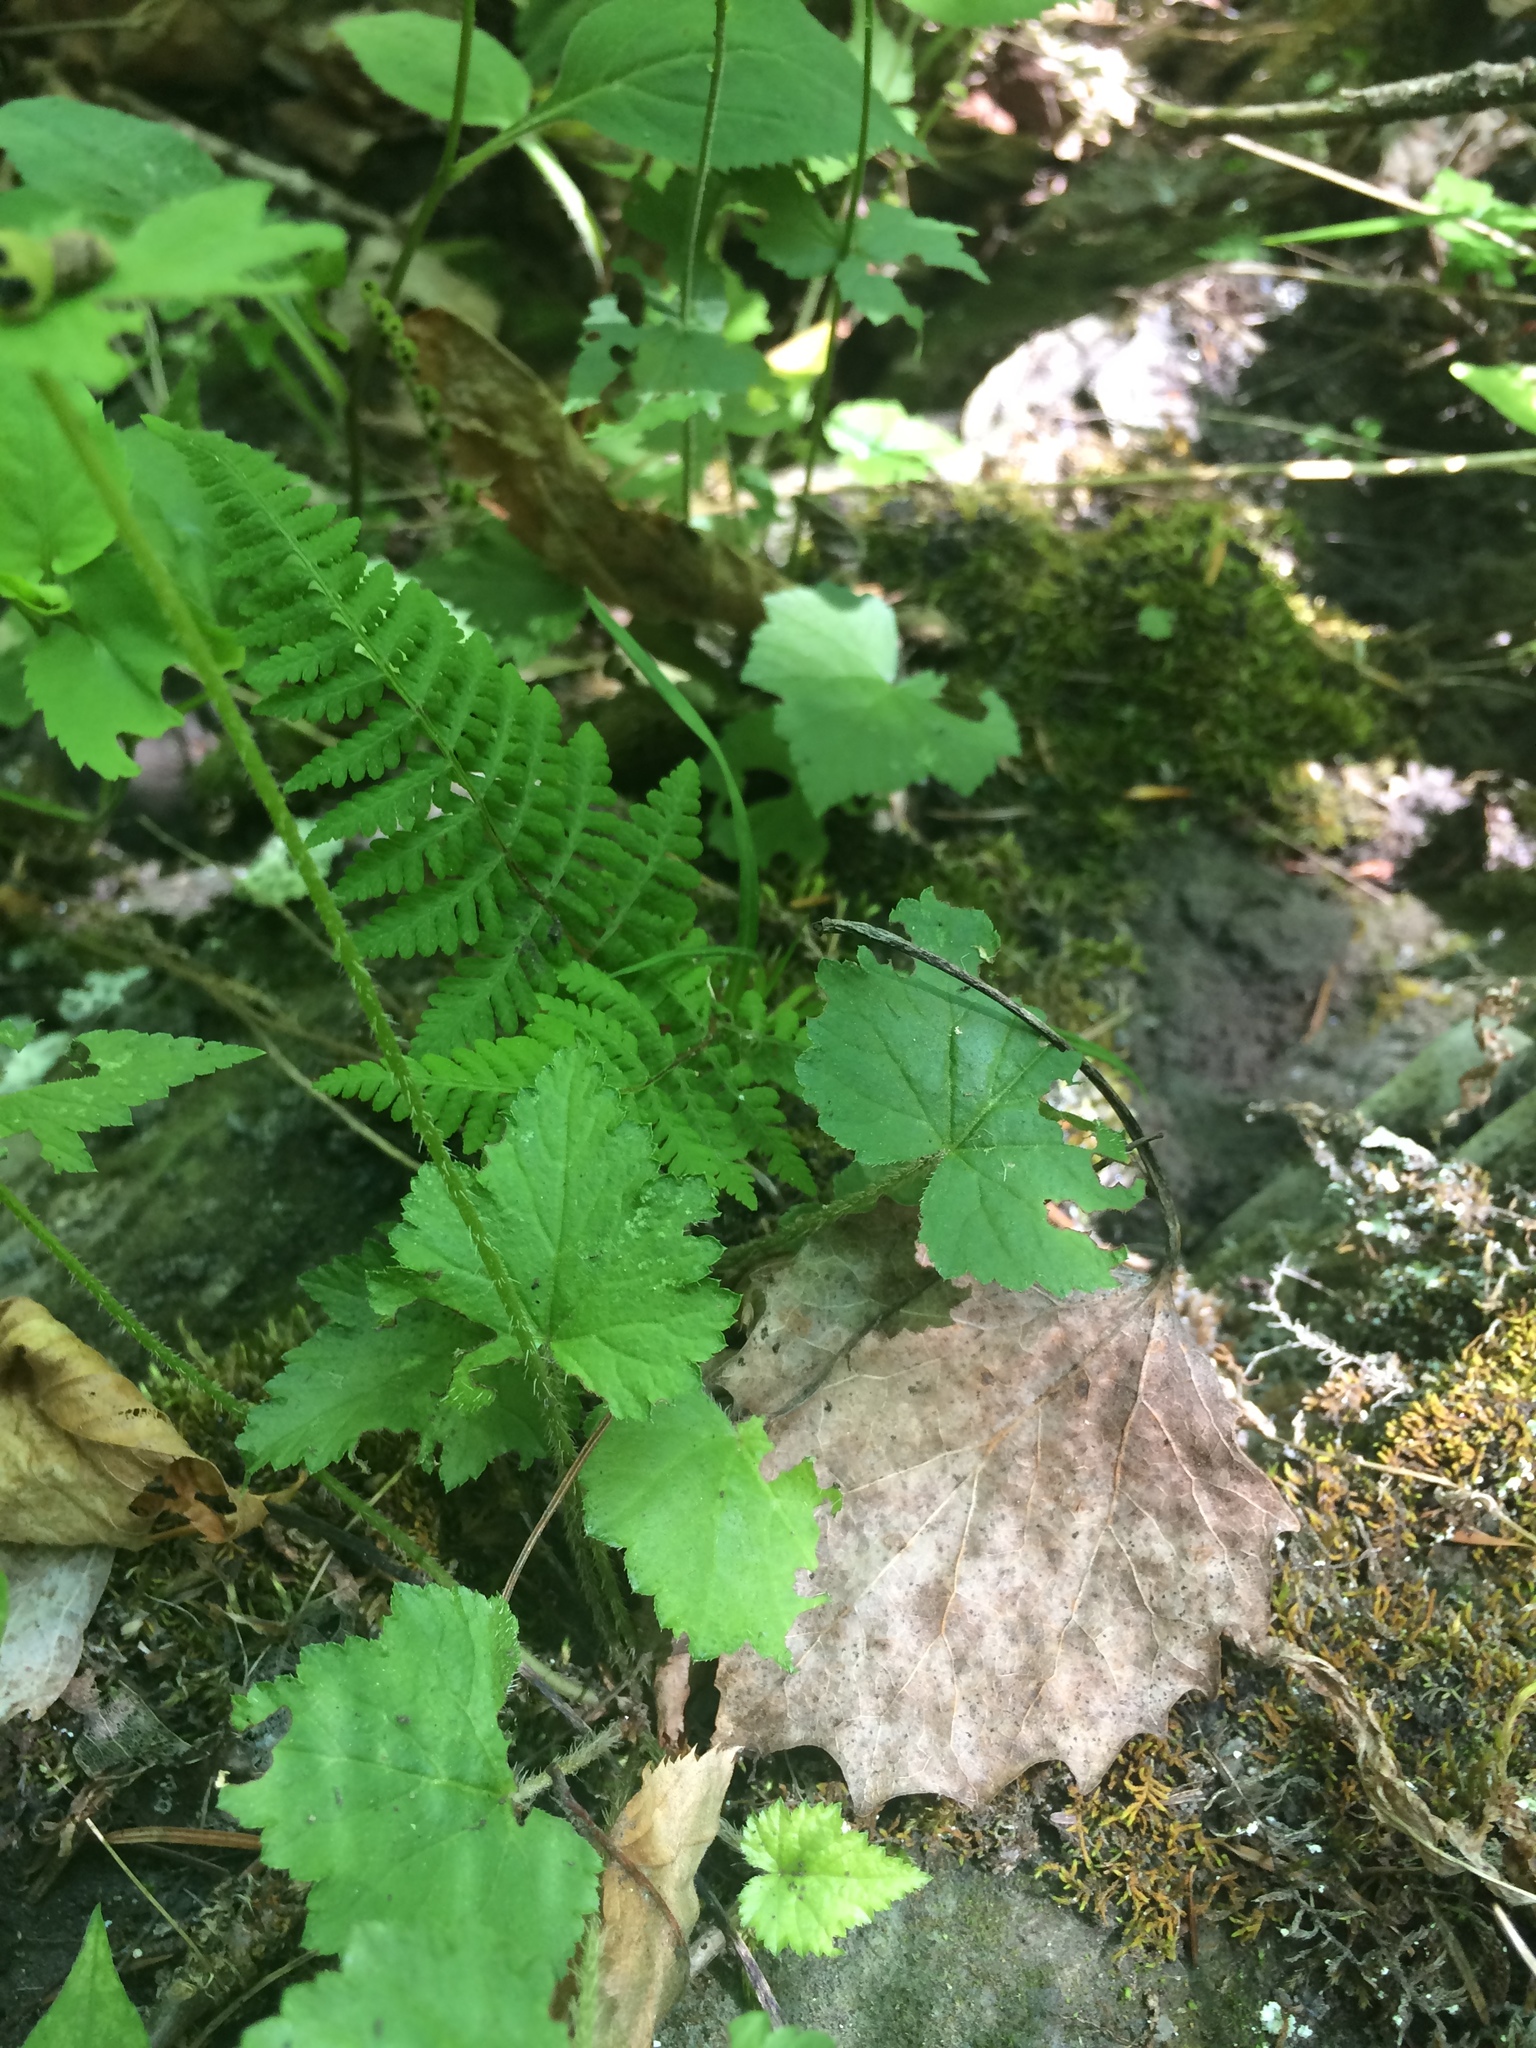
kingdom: Plantae
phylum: Tracheophyta
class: Magnoliopsida
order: Saxifragales
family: Saxifragaceae
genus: Mitella
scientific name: Mitella diphylla
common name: Coolwort
